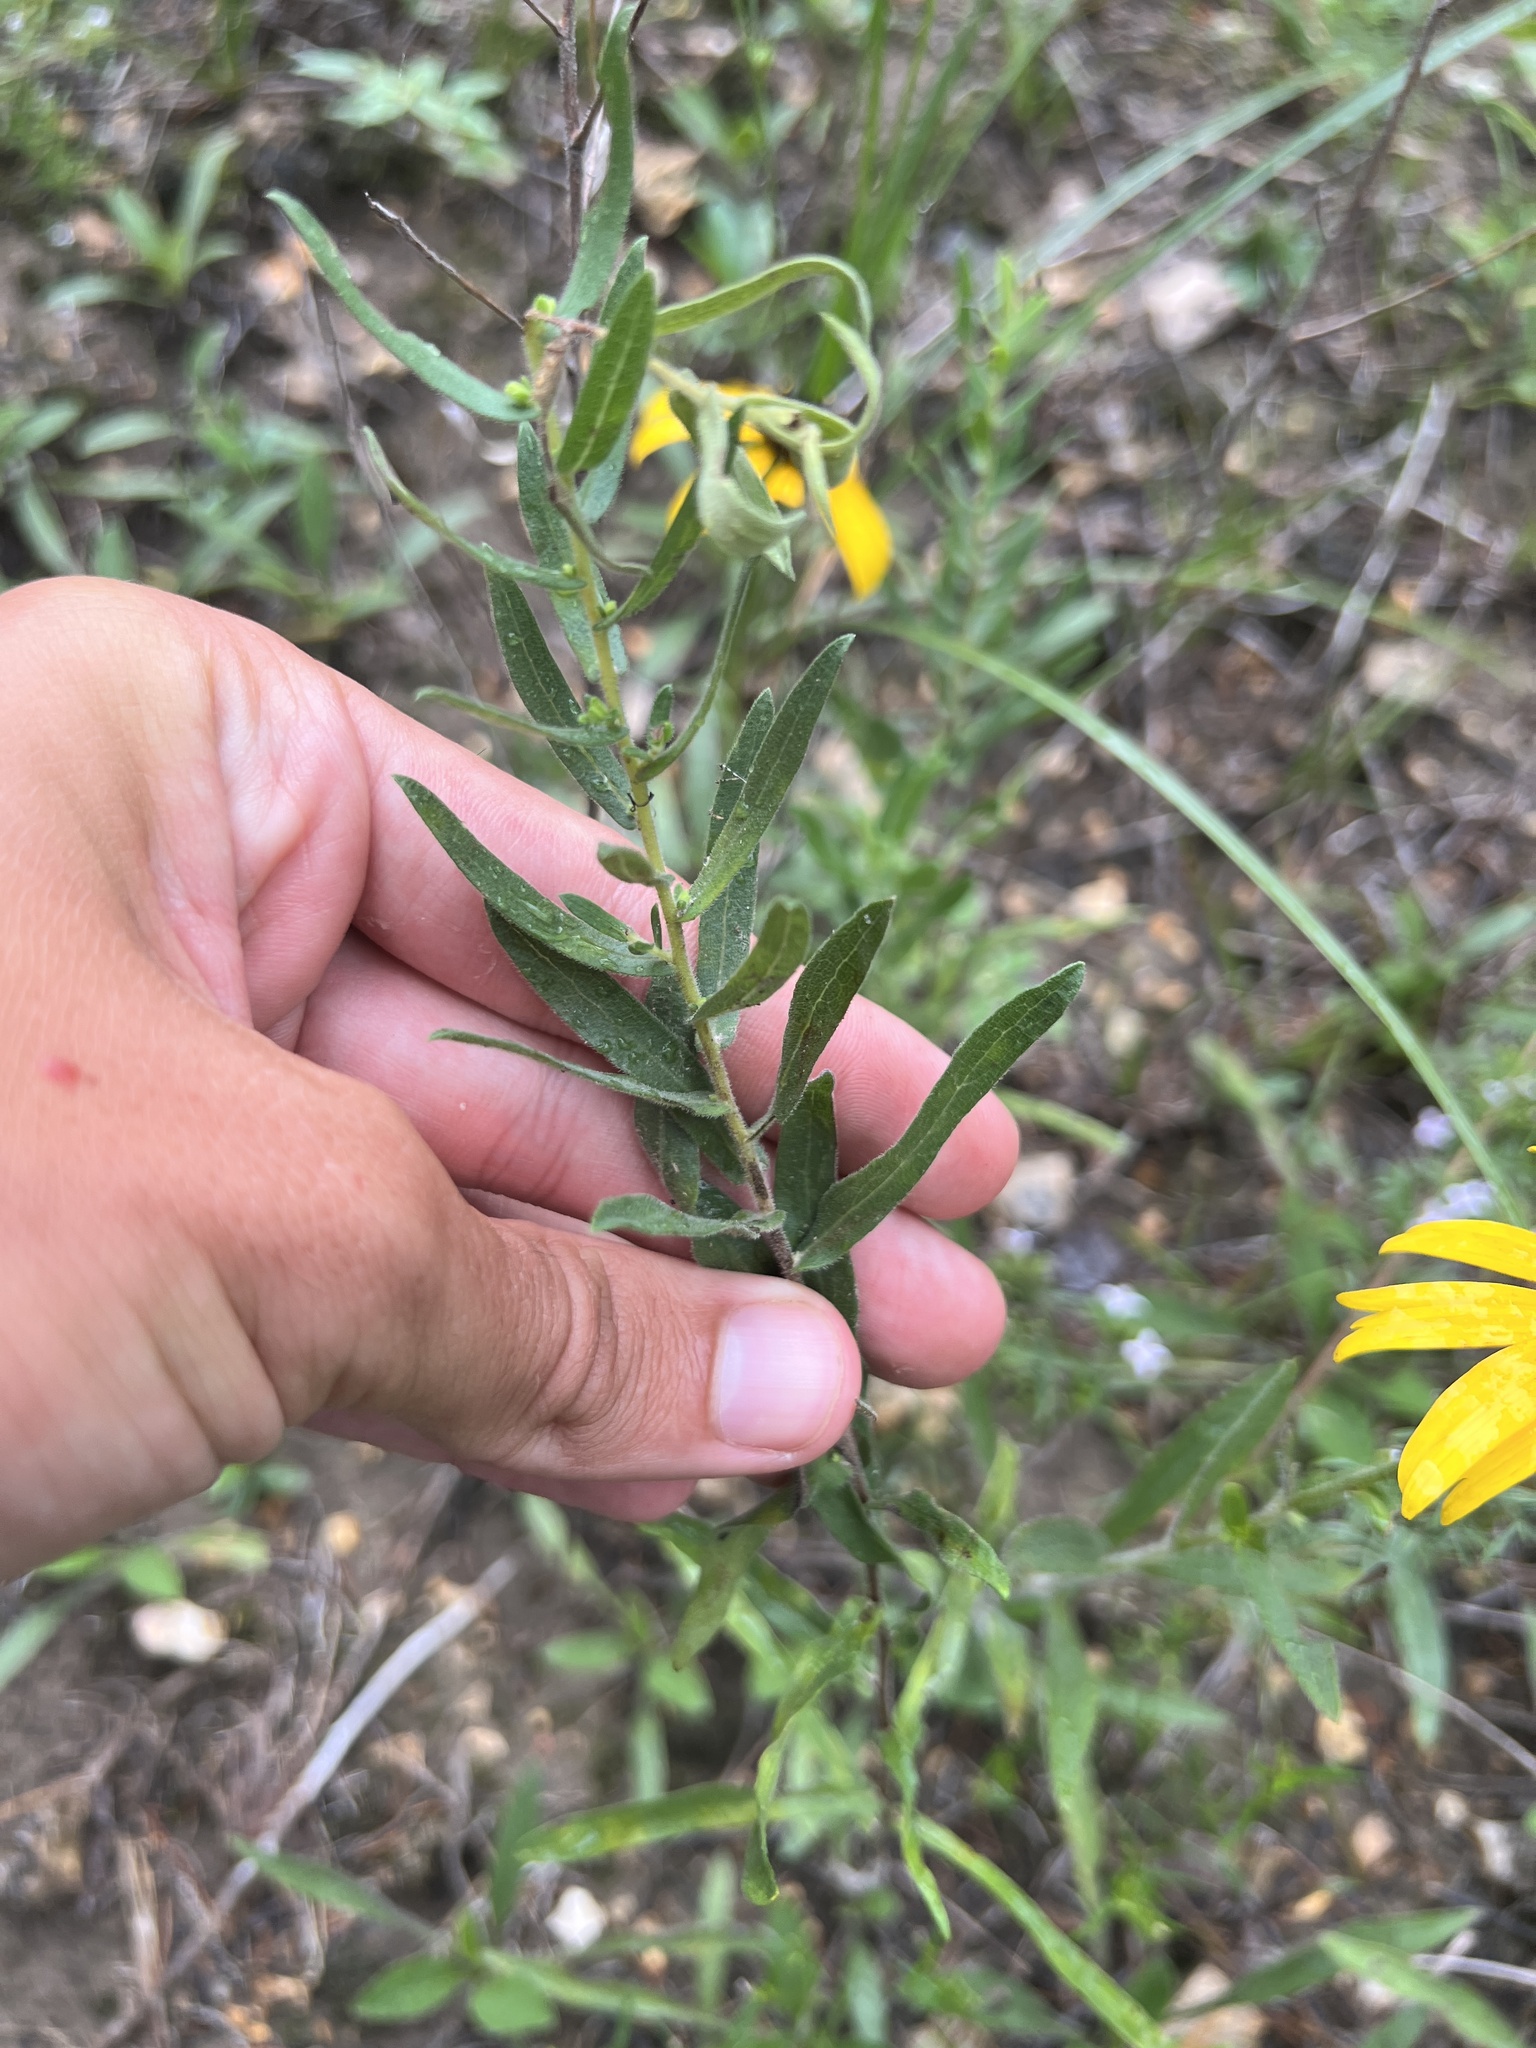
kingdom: Plantae
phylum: Tracheophyta
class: Magnoliopsida
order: Asterales
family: Asteraceae
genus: Symphyotrichum
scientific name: Symphyotrichum oblongifolium
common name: Aromatic aster
